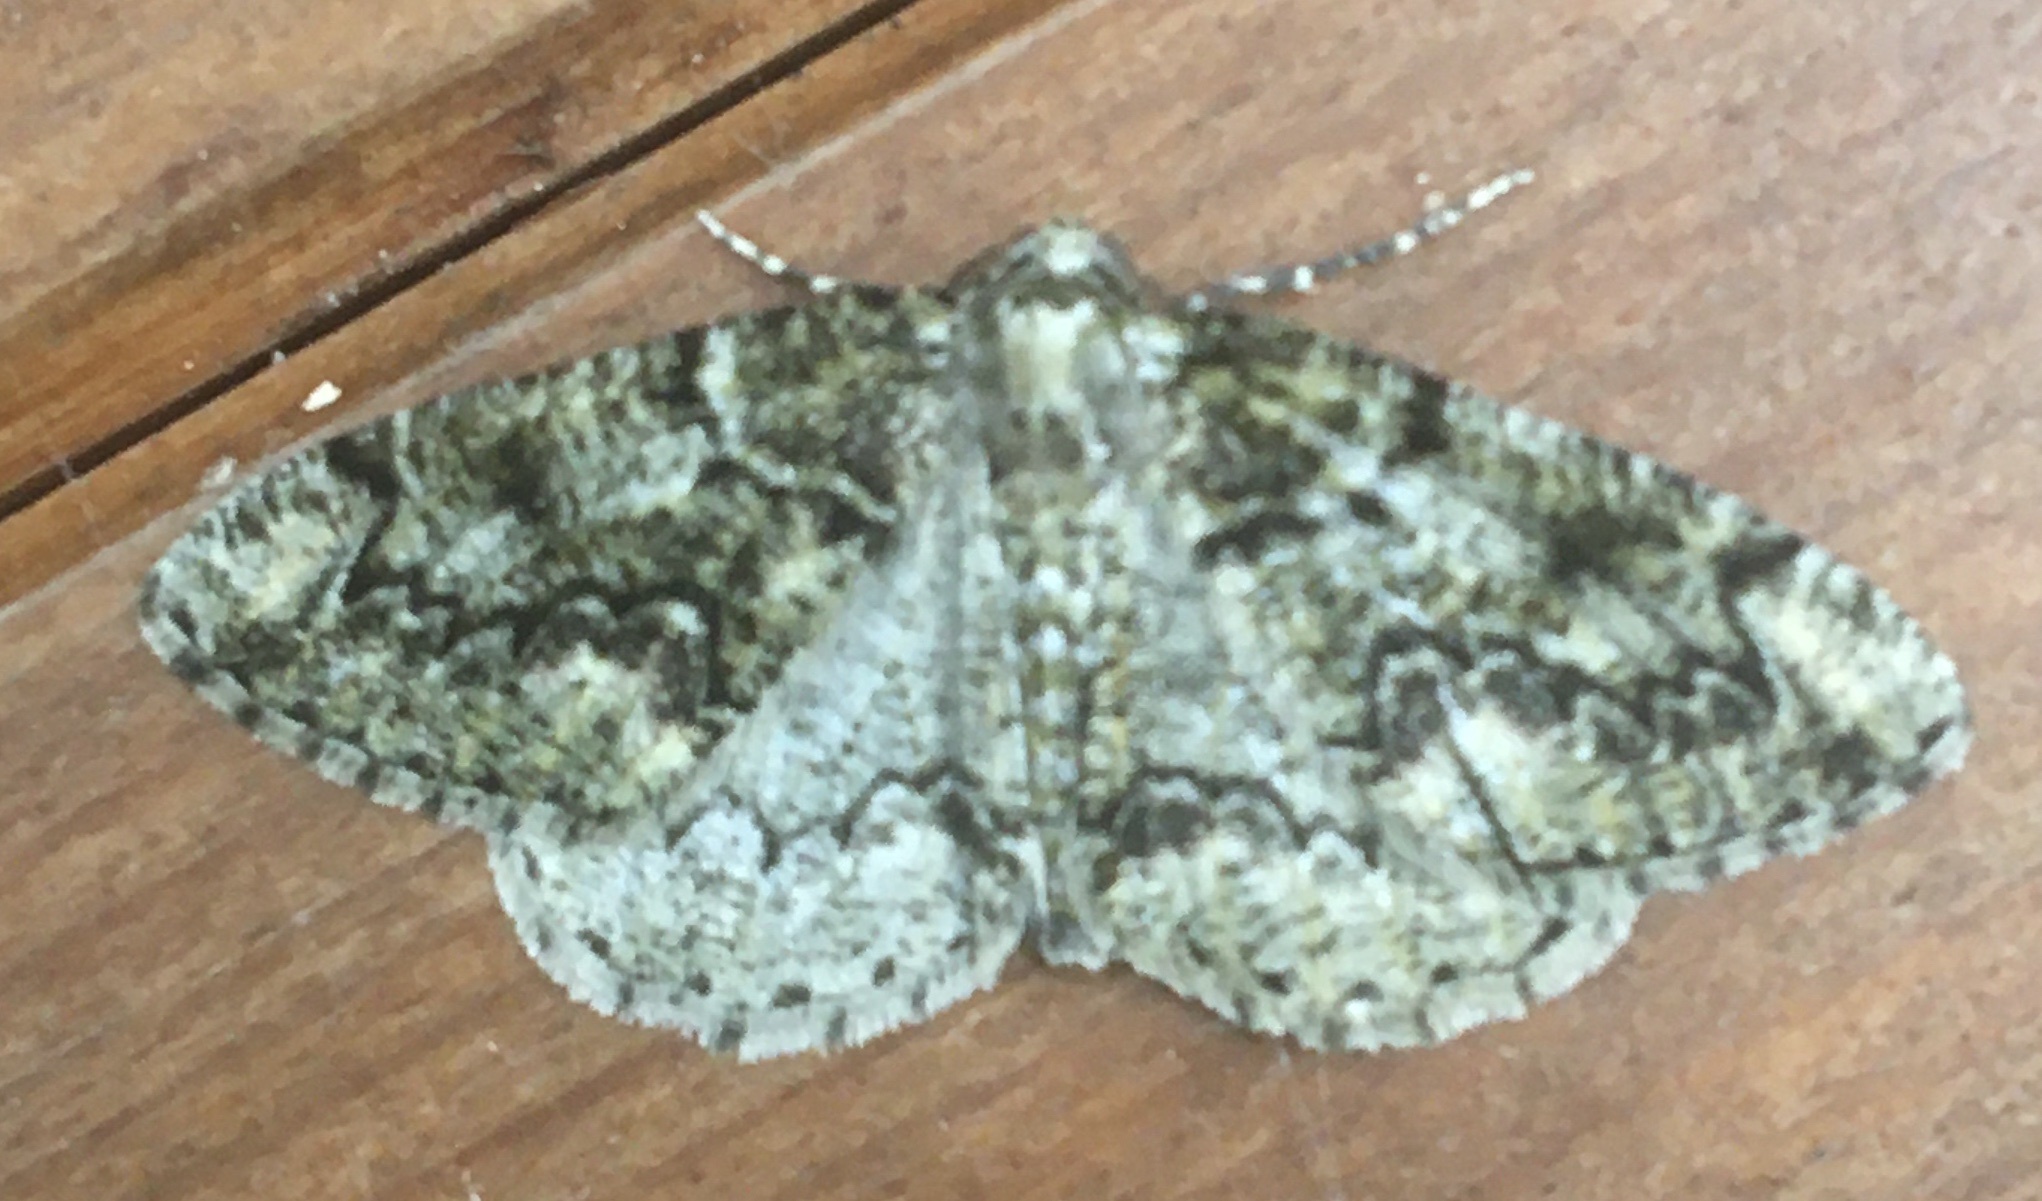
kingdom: Animalia
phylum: Arthropoda
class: Insecta
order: Lepidoptera
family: Geometridae
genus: Cleorodes
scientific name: Cleorodes lichenaria
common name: Brussels lace
